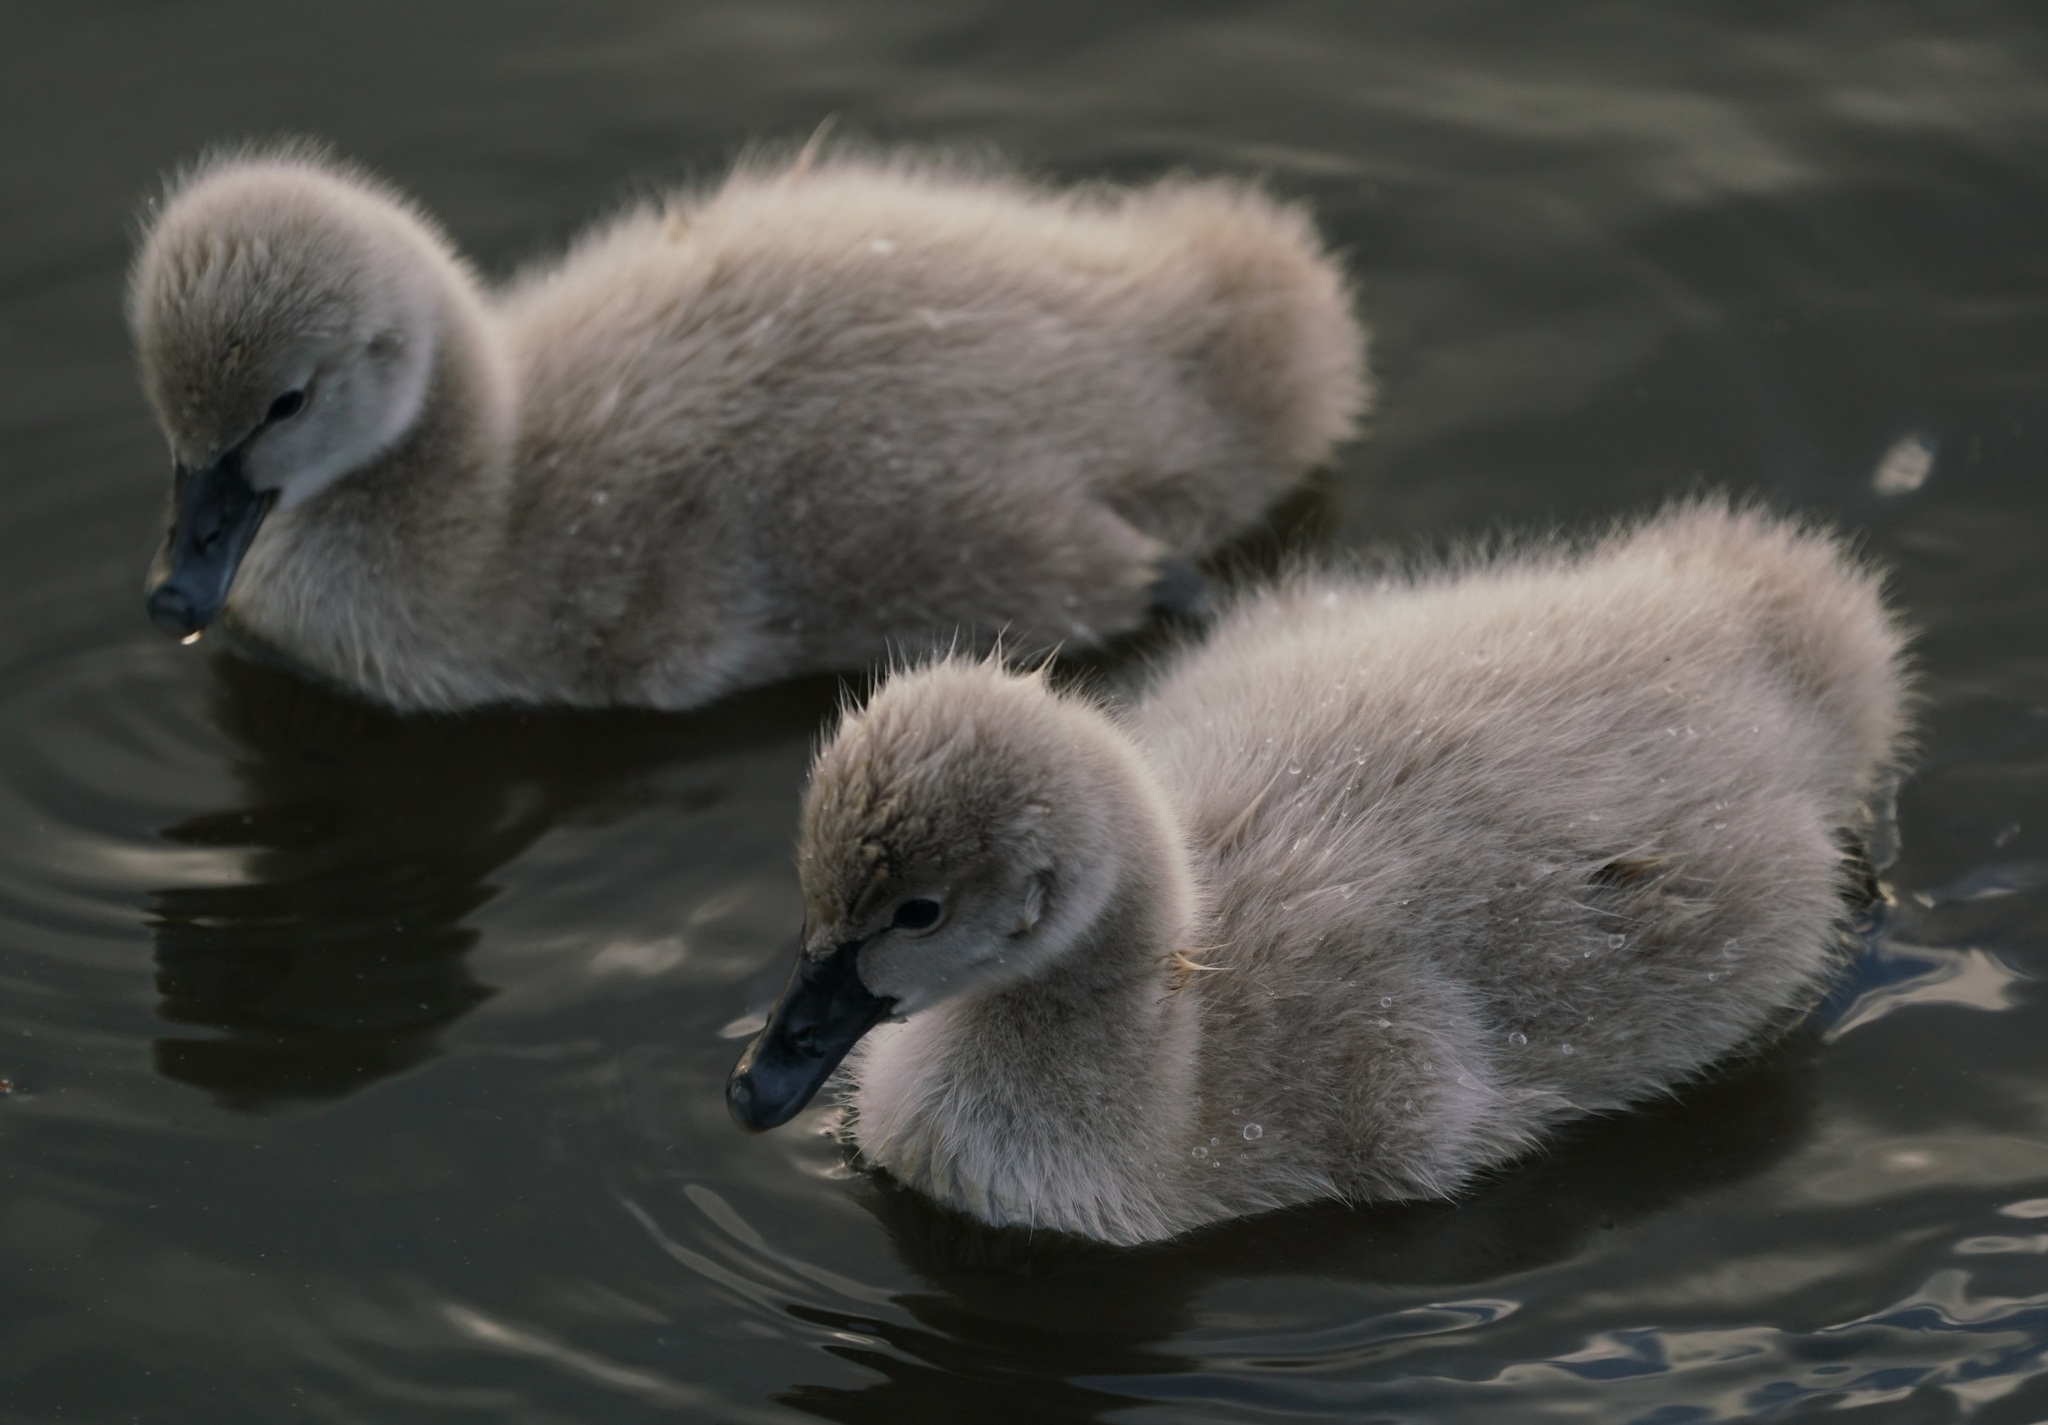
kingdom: Animalia
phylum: Chordata
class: Aves
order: Anseriformes
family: Anatidae
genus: Cygnus
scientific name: Cygnus atratus
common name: Black swan
